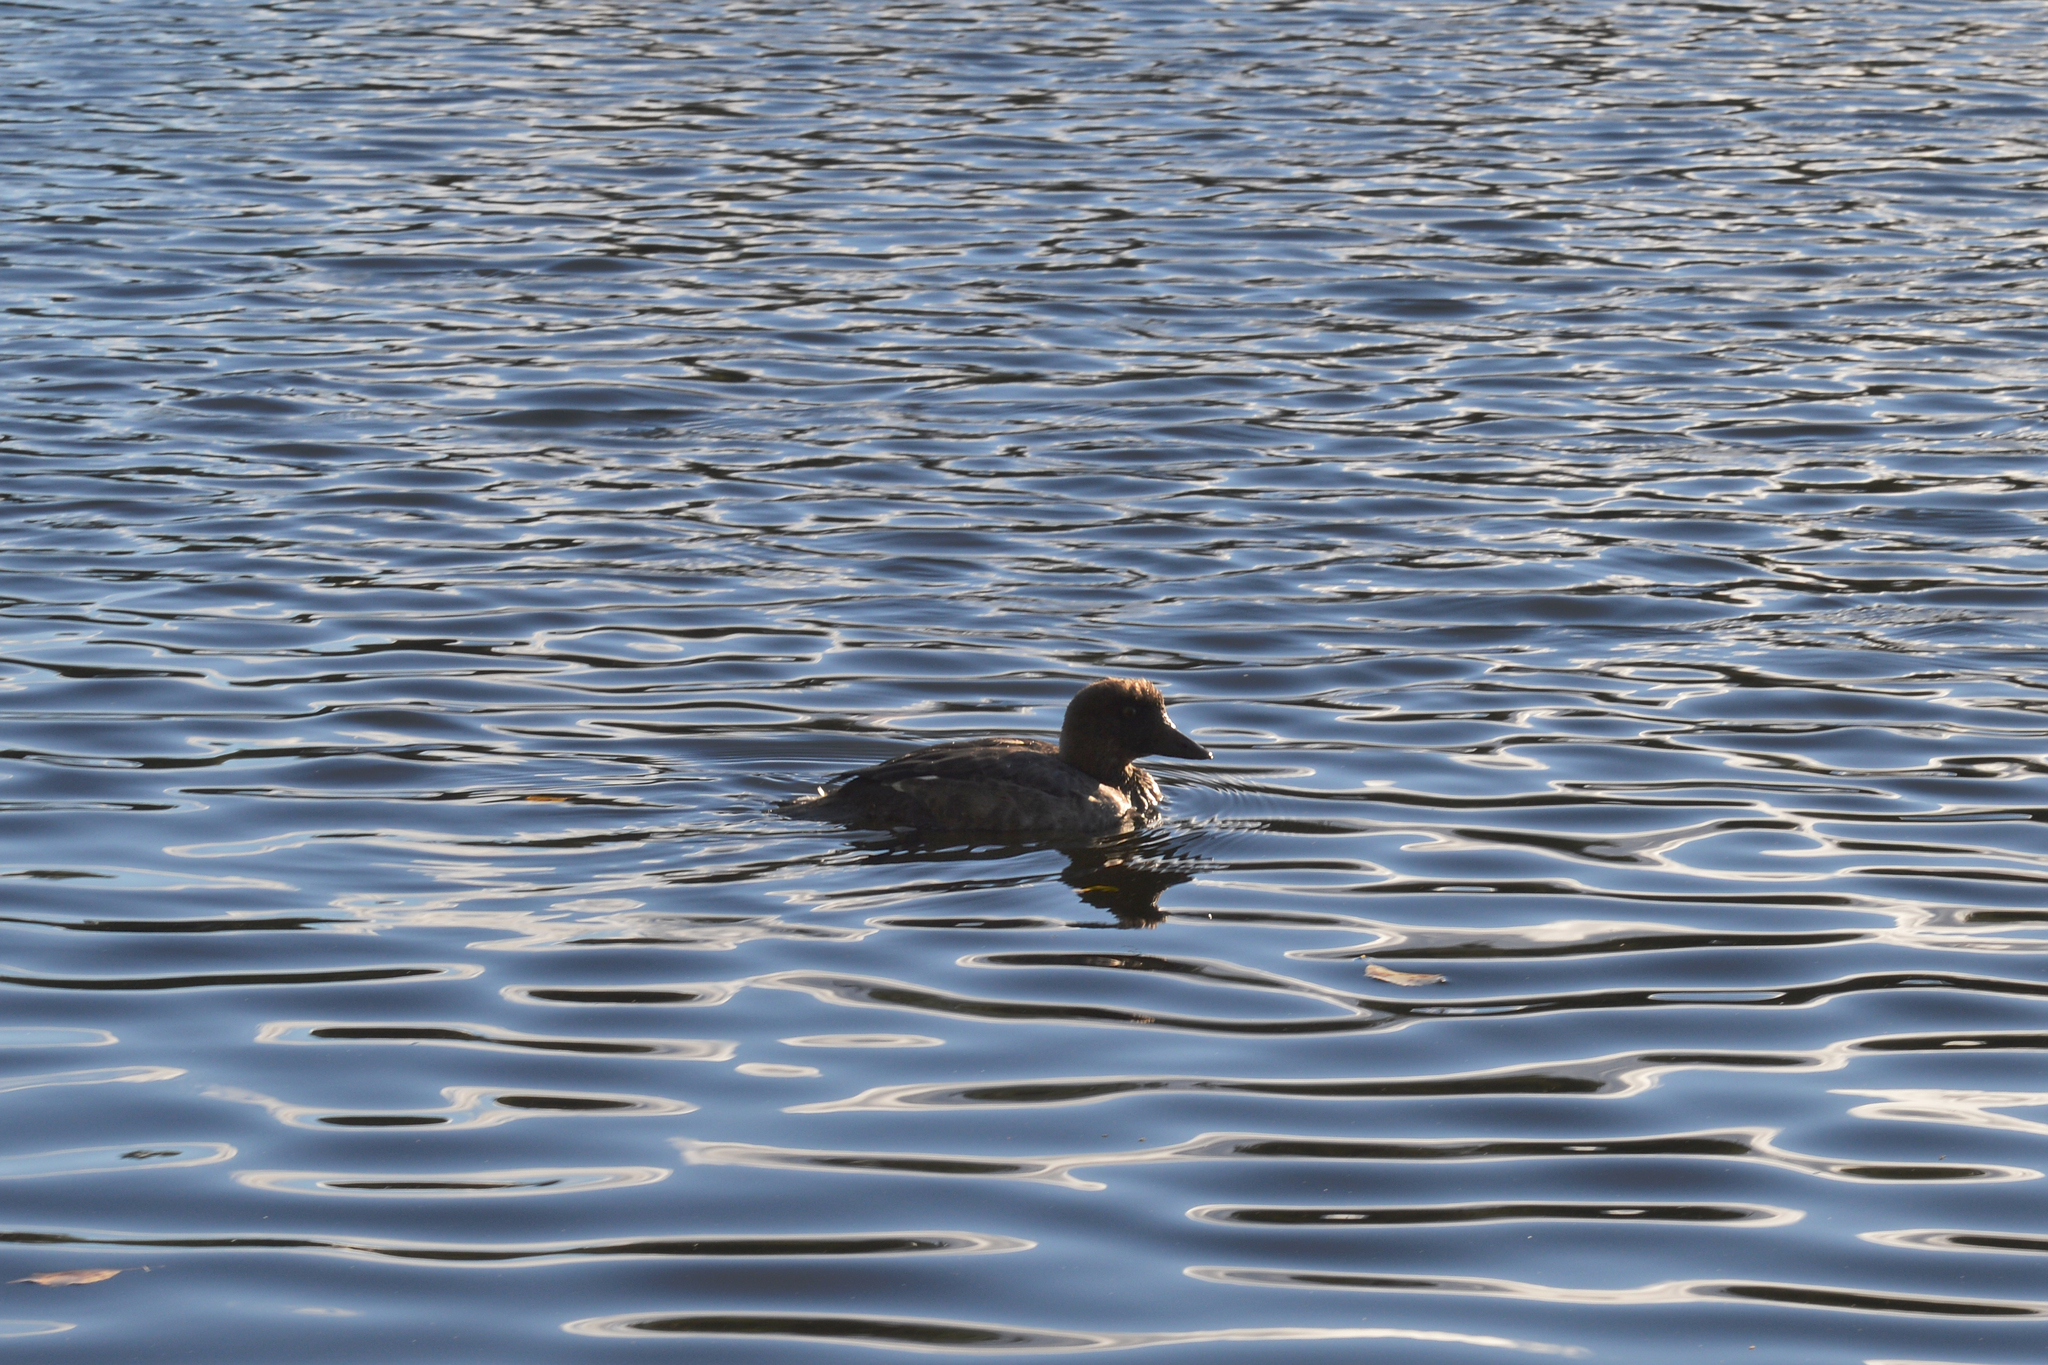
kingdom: Animalia
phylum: Chordata
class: Aves
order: Anseriformes
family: Anatidae
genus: Bucephala
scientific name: Bucephala clangula
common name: Common goldeneye
